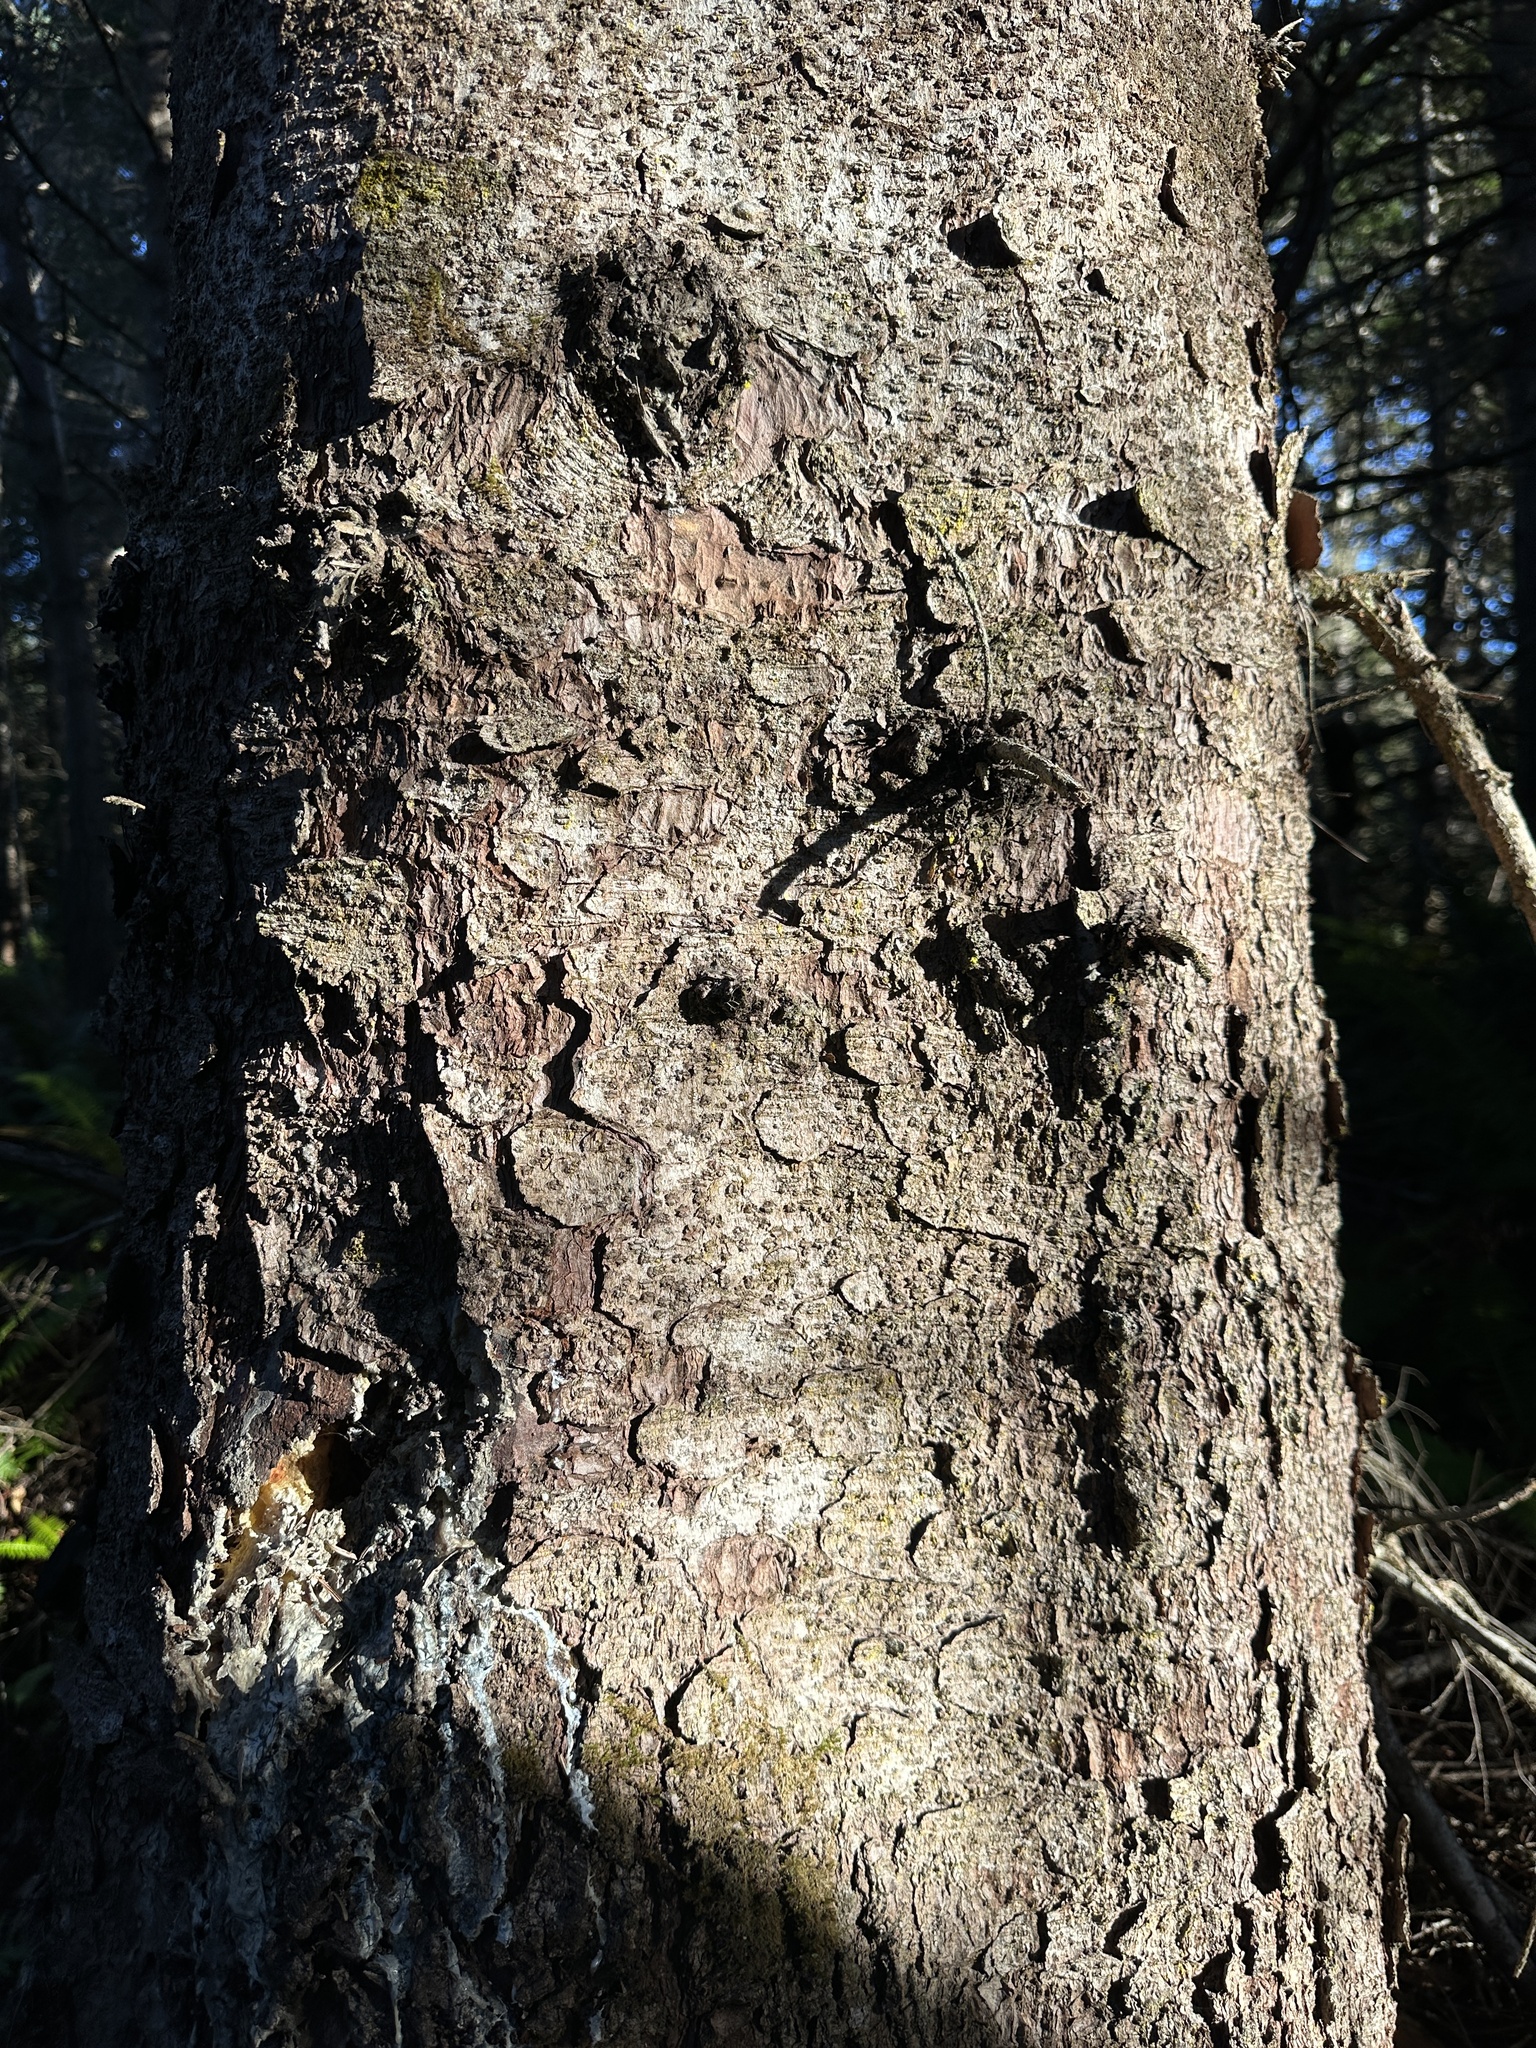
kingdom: Plantae
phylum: Tracheophyta
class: Pinopsida
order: Pinales
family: Pinaceae
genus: Pseudotsuga
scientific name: Pseudotsuga menziesii
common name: Douglas fir
